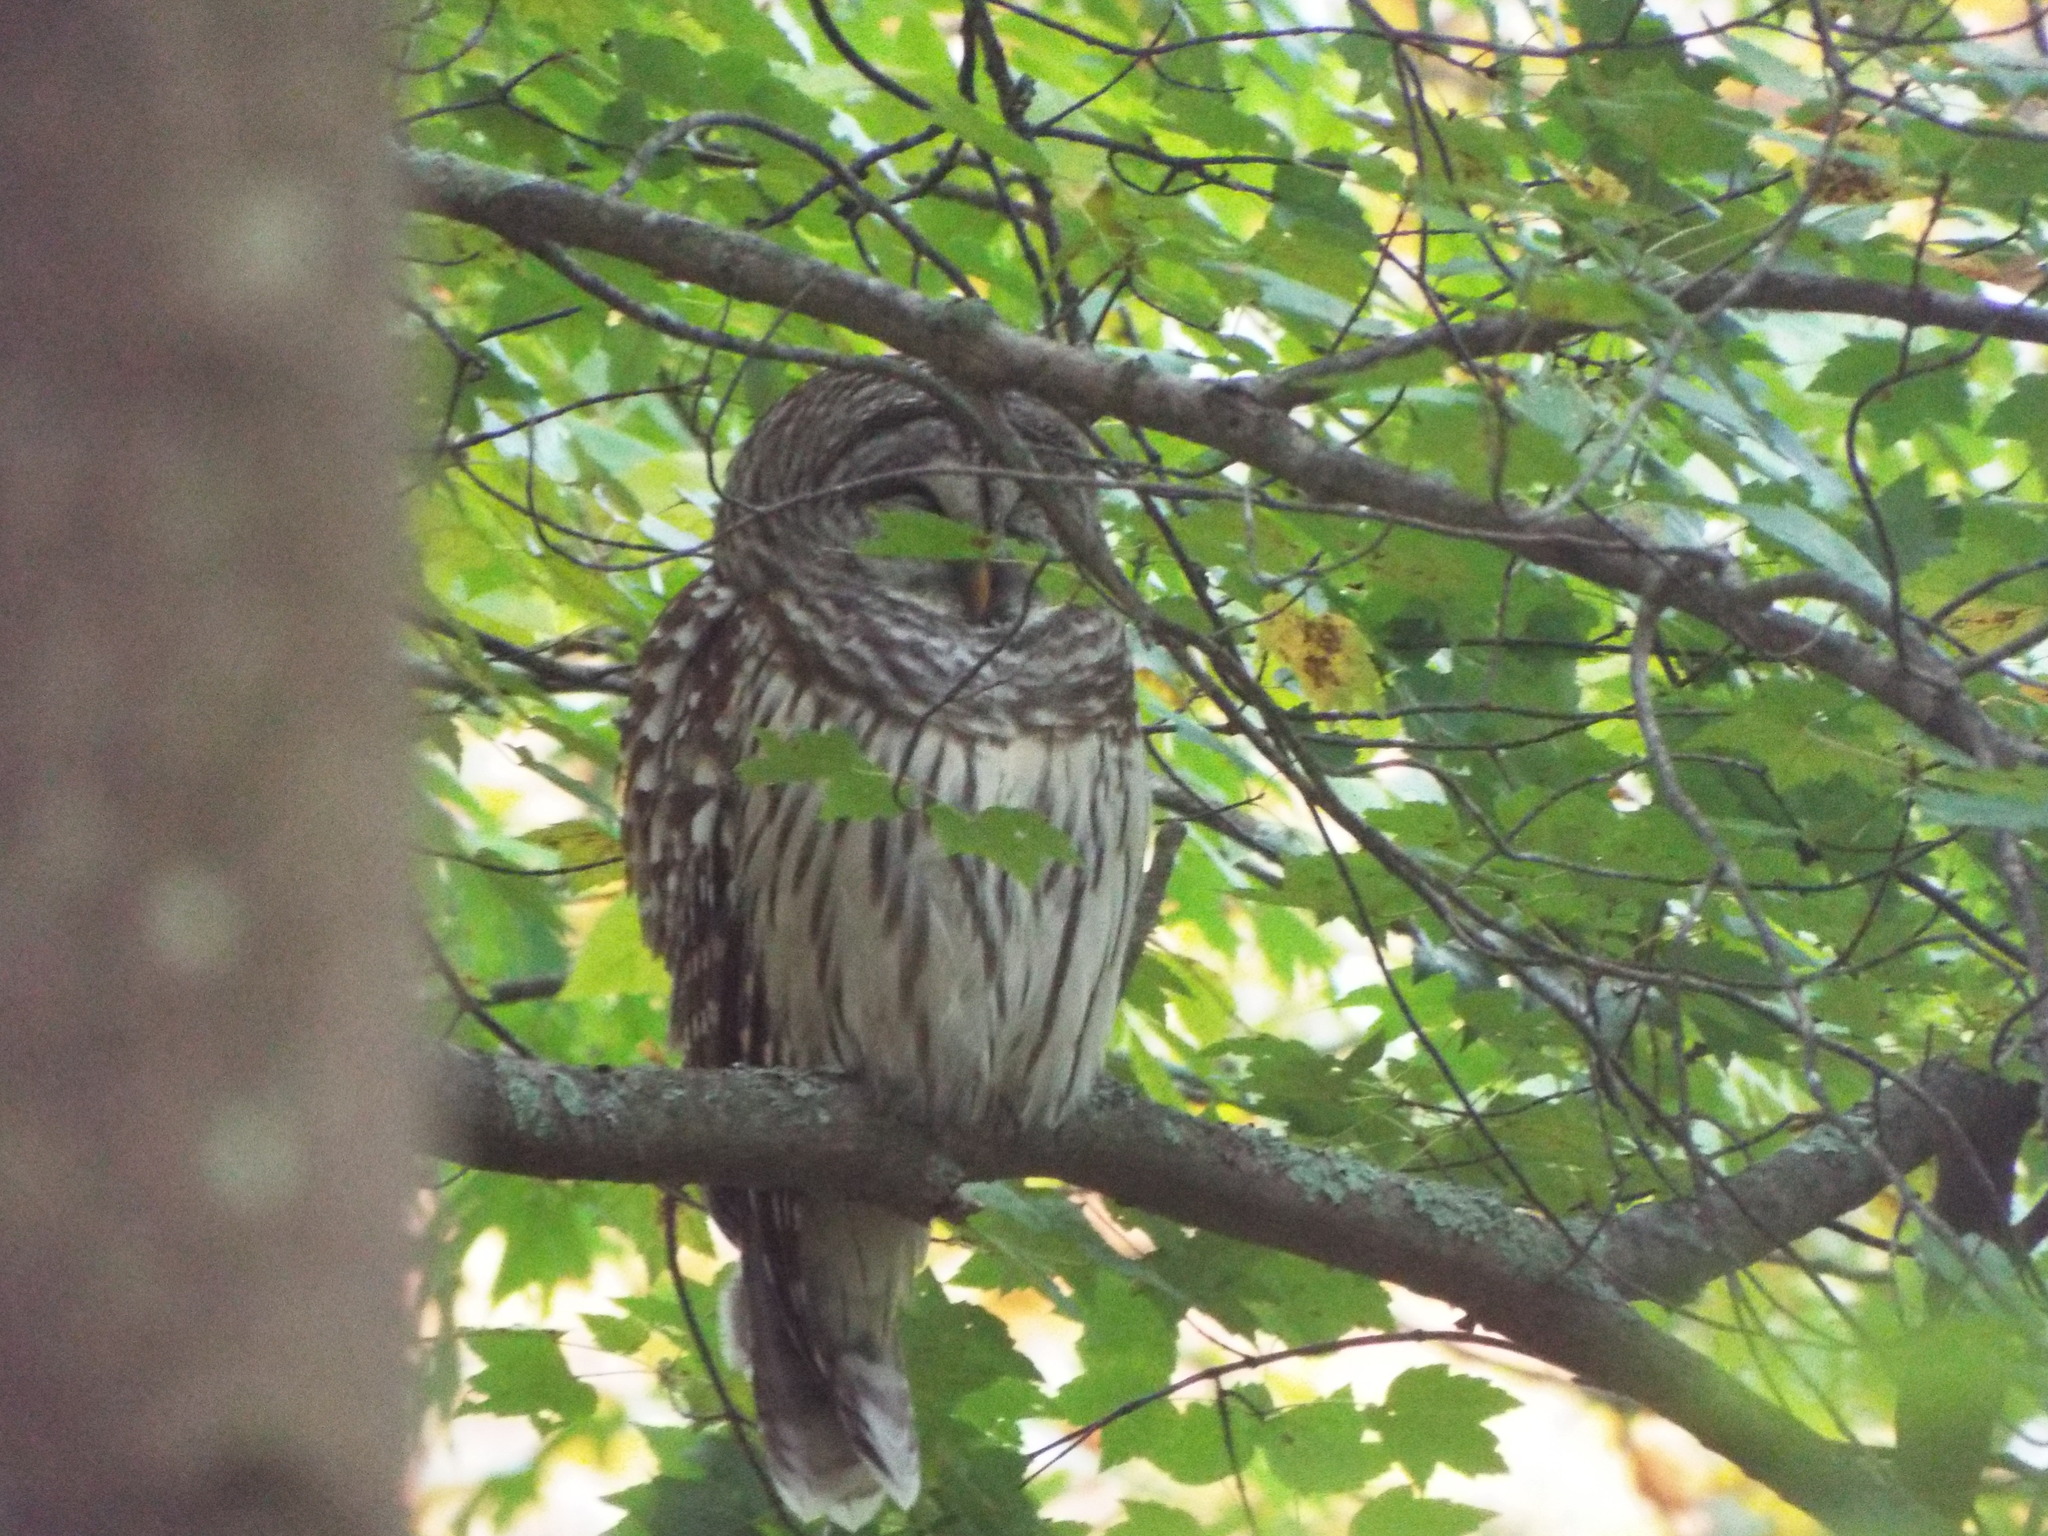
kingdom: Animalia
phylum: Chordata
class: Aves
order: Strigiformes
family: Strigidae
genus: Strix
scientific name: Strix varia
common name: Barred owl
